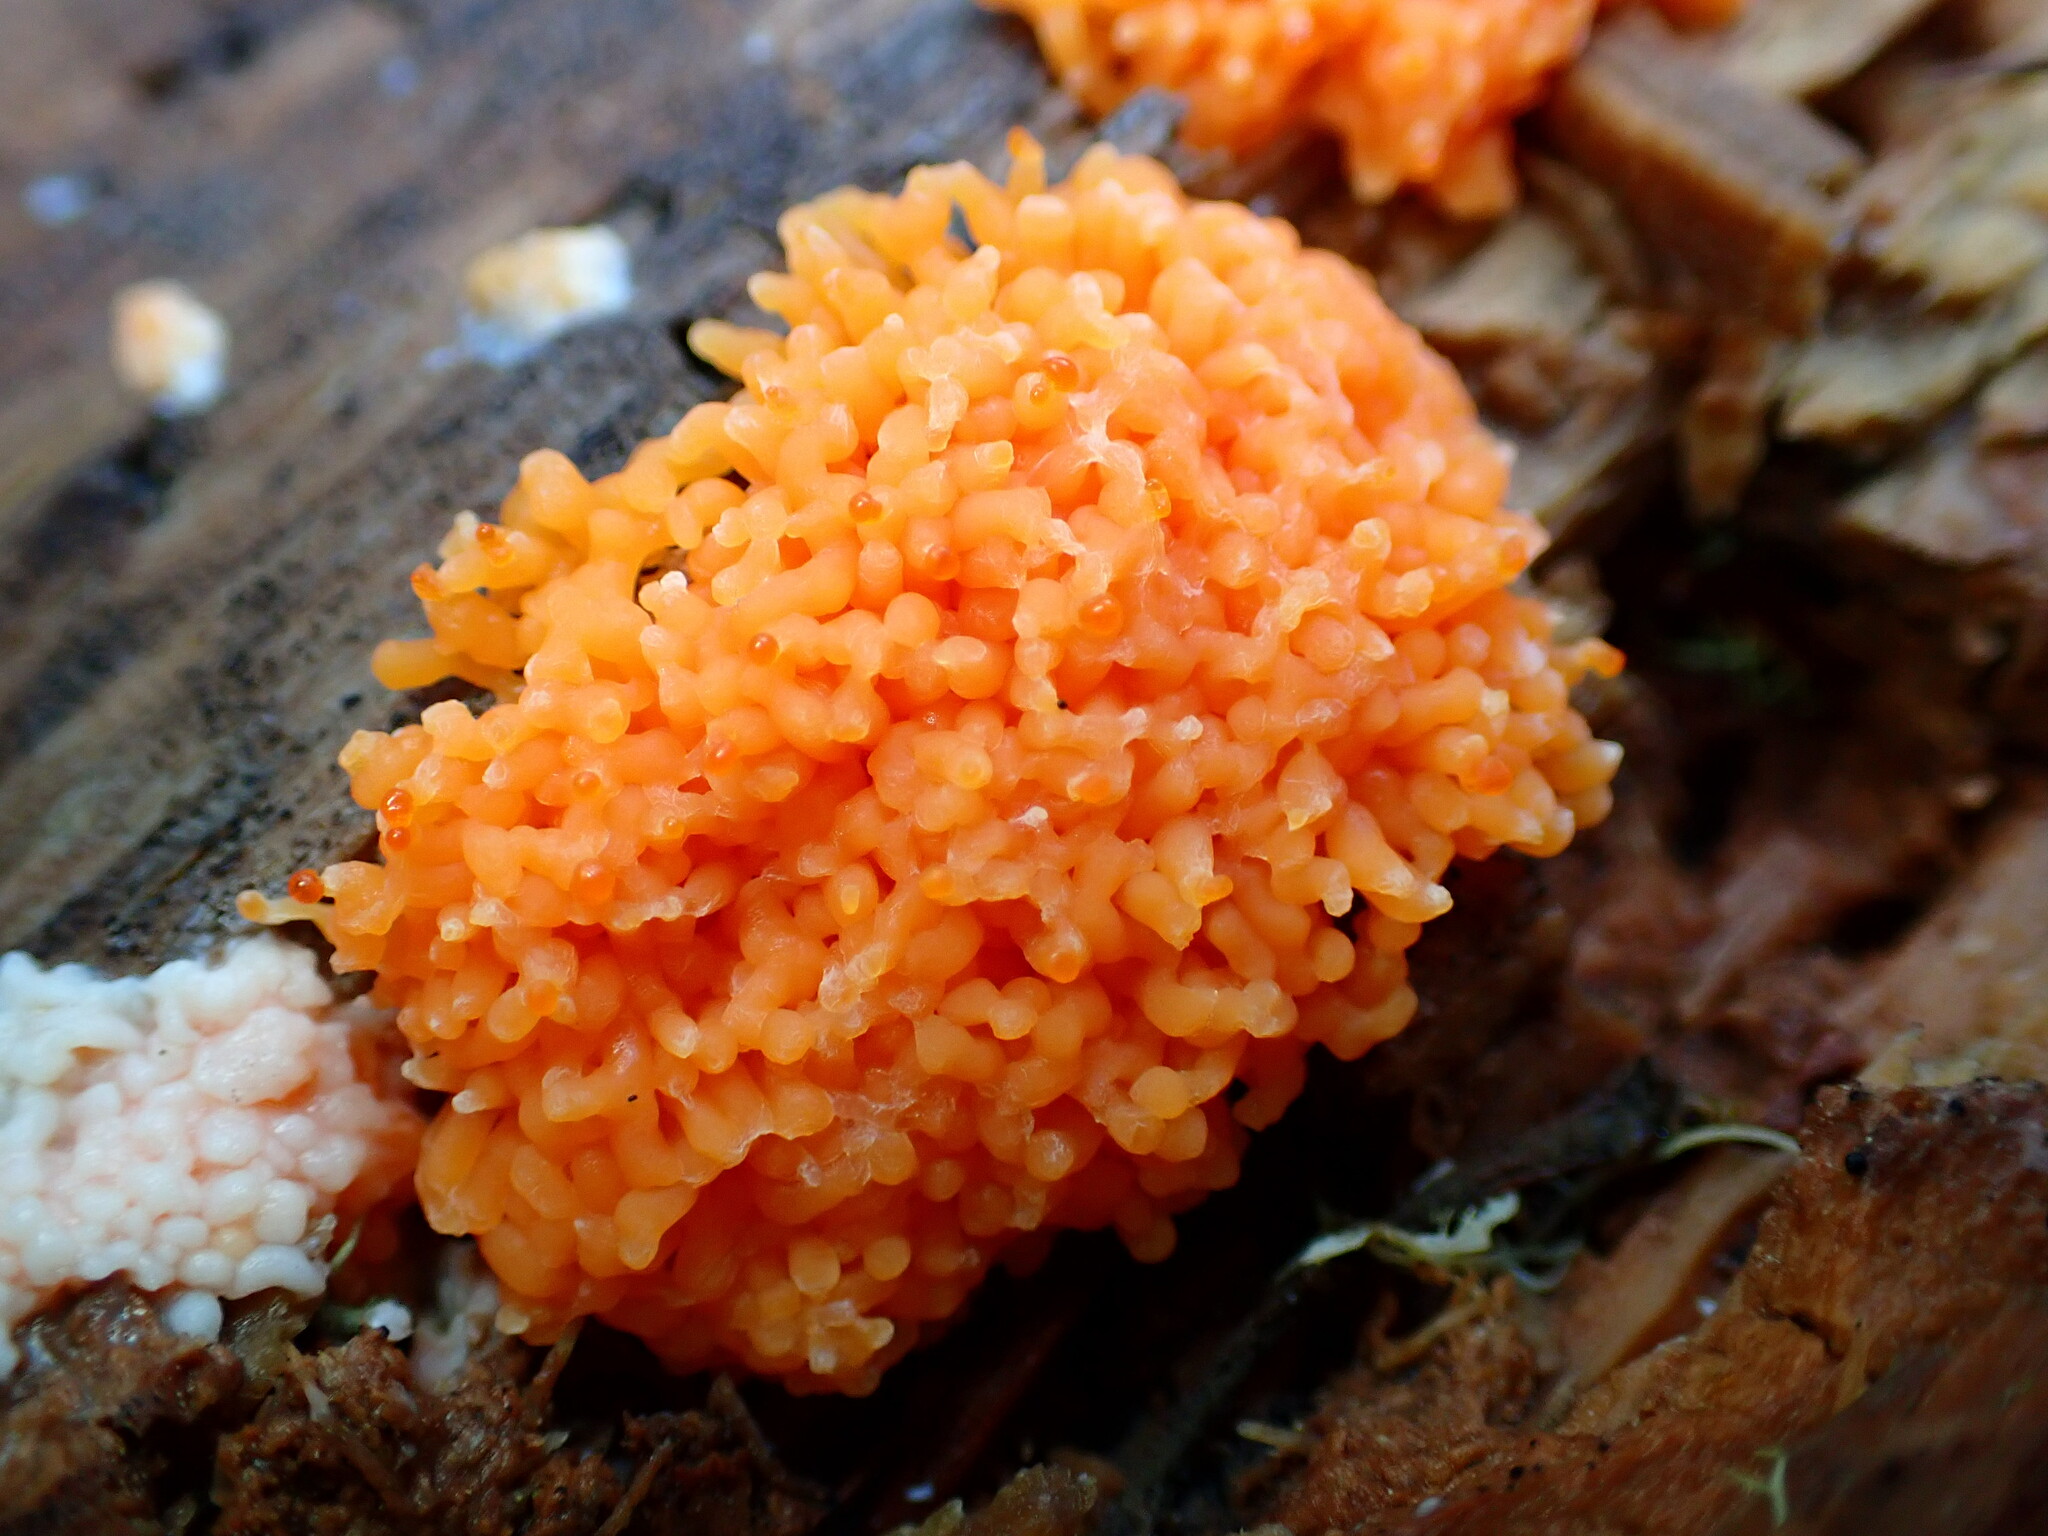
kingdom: Protozoa
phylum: Mycetozoa
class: Myxomycetes
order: Cribrariales
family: Tubiferaceae
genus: Tubifera
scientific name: Tubifera montana
